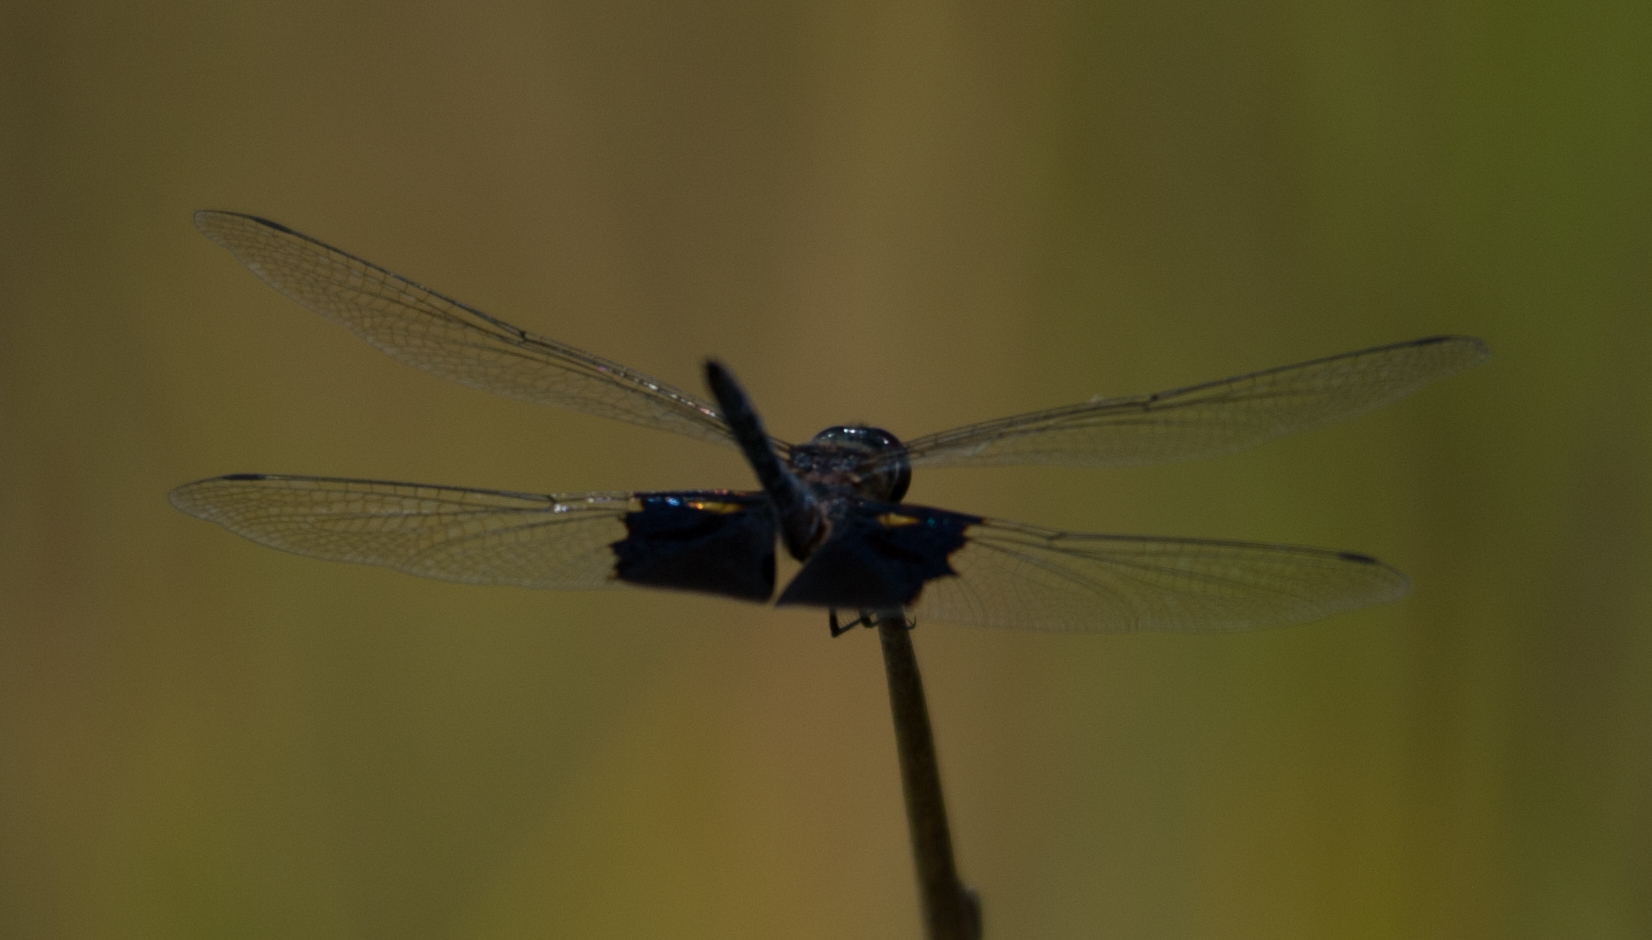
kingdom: Animalia
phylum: Arthropoda
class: Insecta
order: Odonata
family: Libellulidae
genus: Rhyothemis
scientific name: Rhyothemis semihyalina
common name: Phantom flutterer
